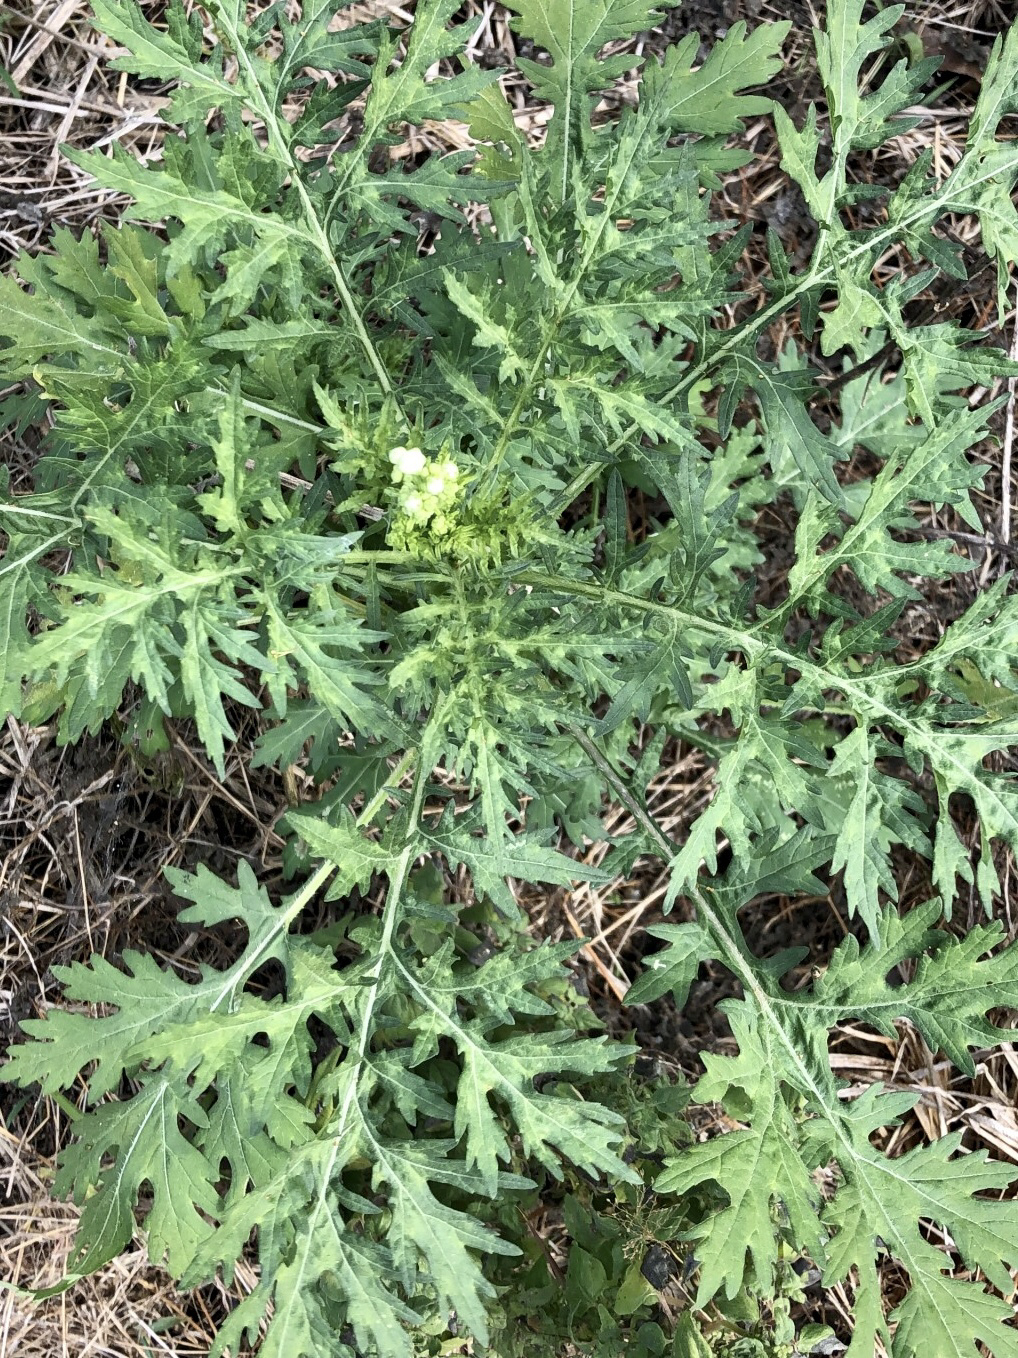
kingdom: Plantae
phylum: Tracheophyta
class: Magnoliopsida
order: Asterales
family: Asteraceae
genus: Parthenium
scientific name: Parthenium hysterophorus
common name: Santa maria feverfew
